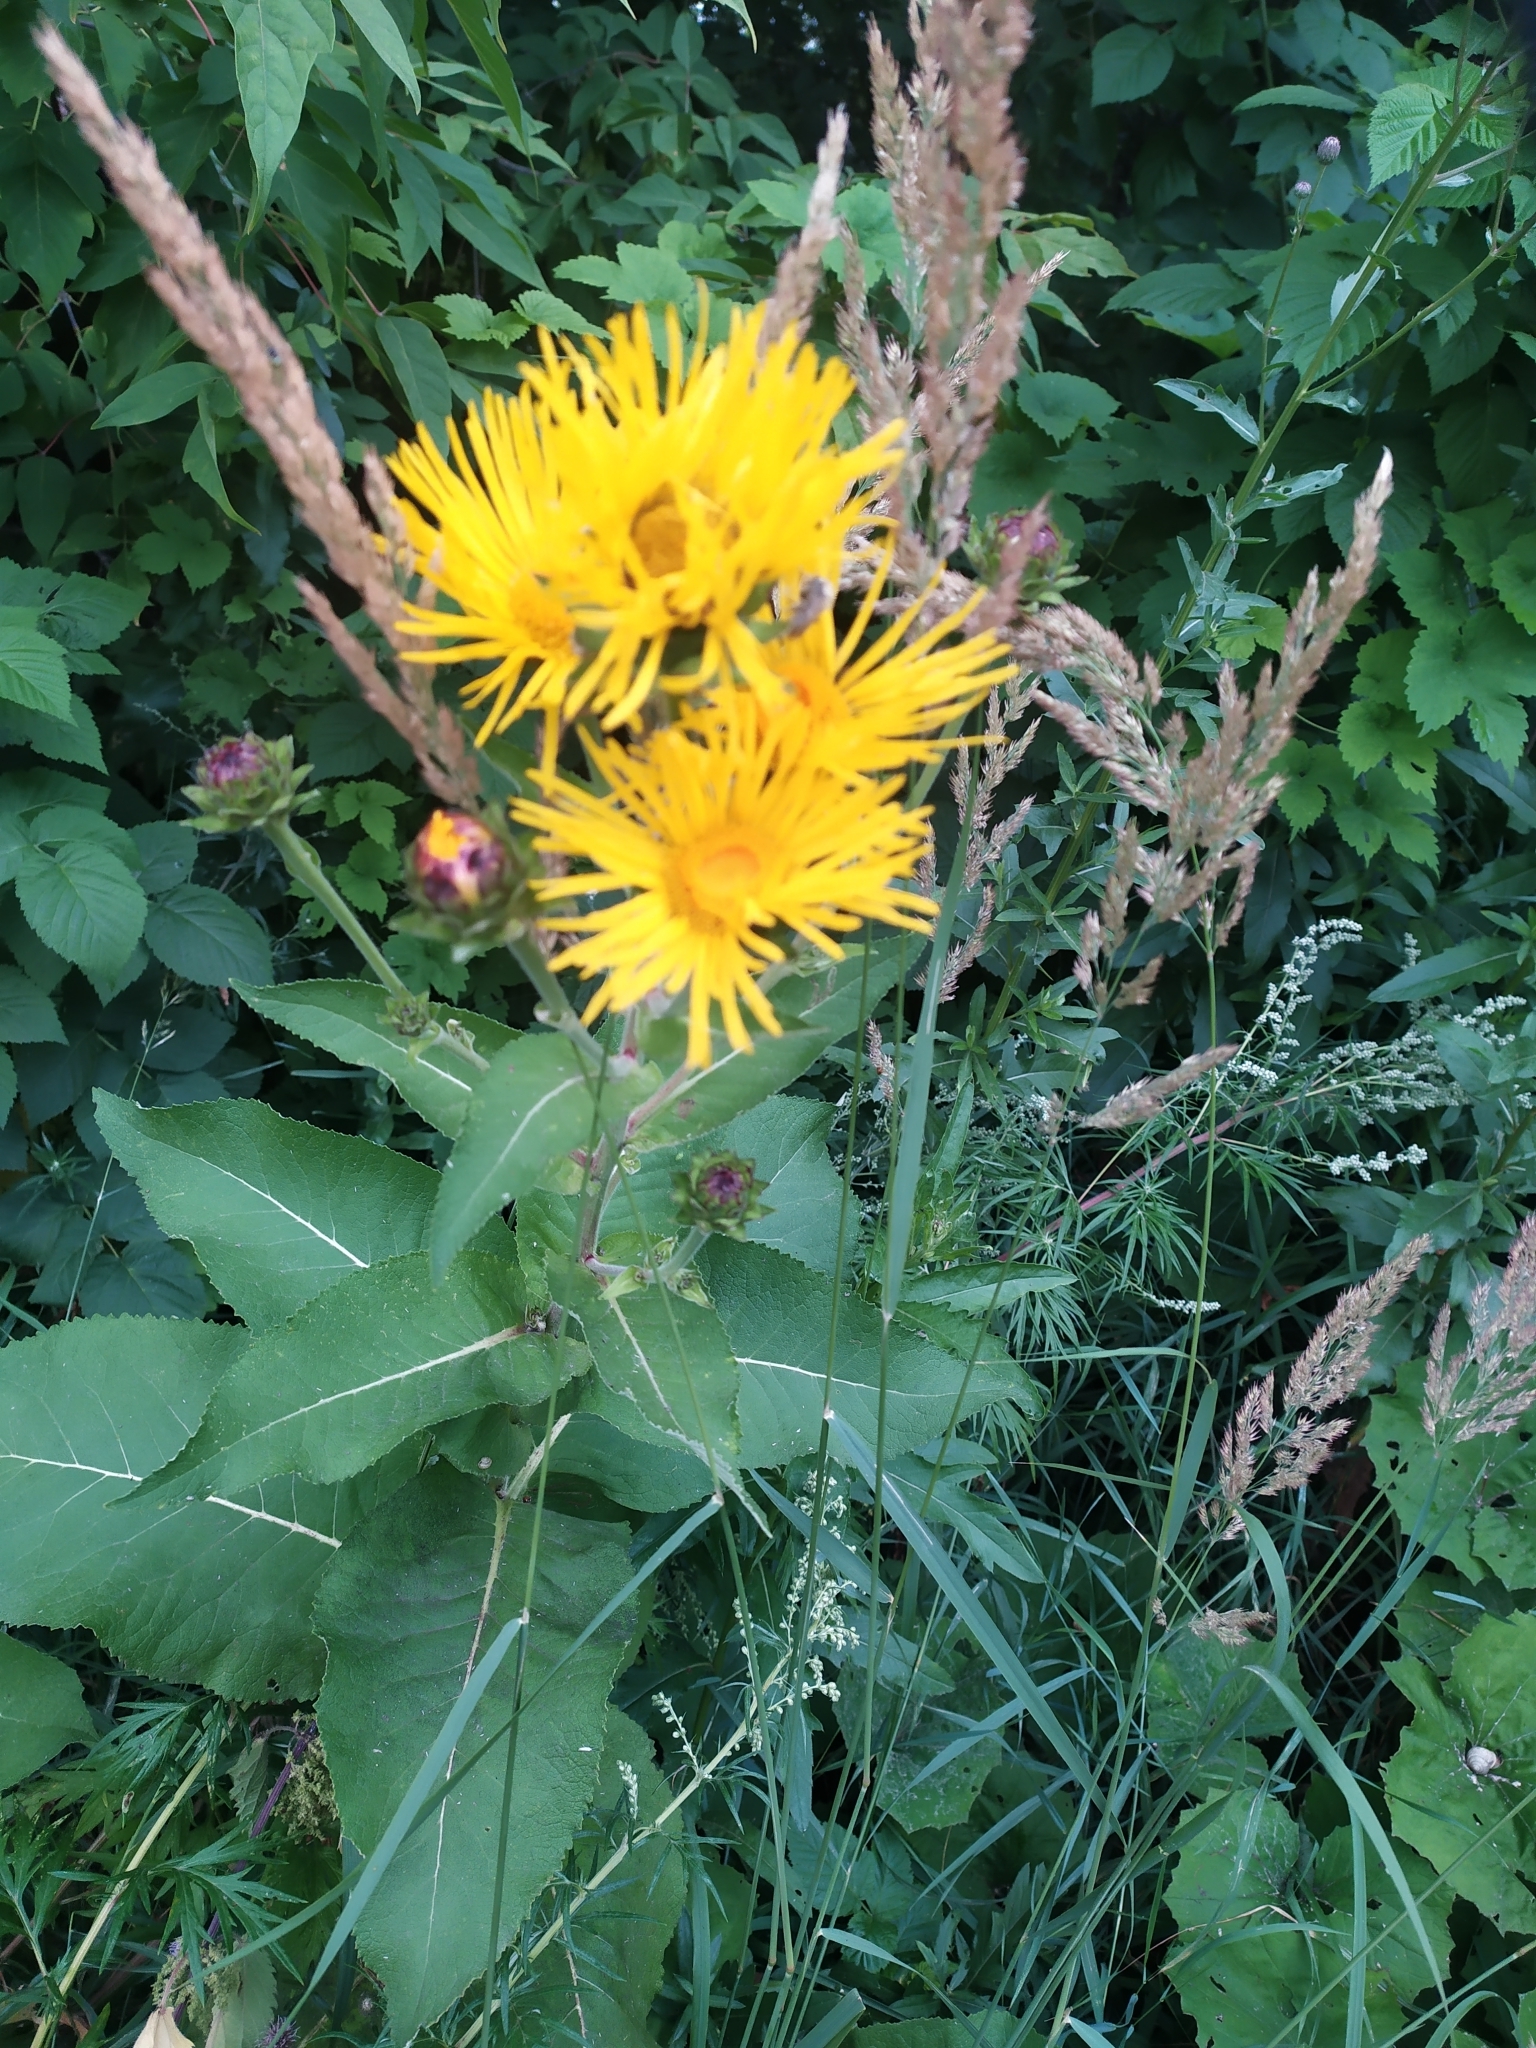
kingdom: Plantae
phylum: Tracheophyta
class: Magnoliopsida
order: Asterales
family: Asteraceae
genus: Inula
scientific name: Inula helenium
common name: Elecampane
